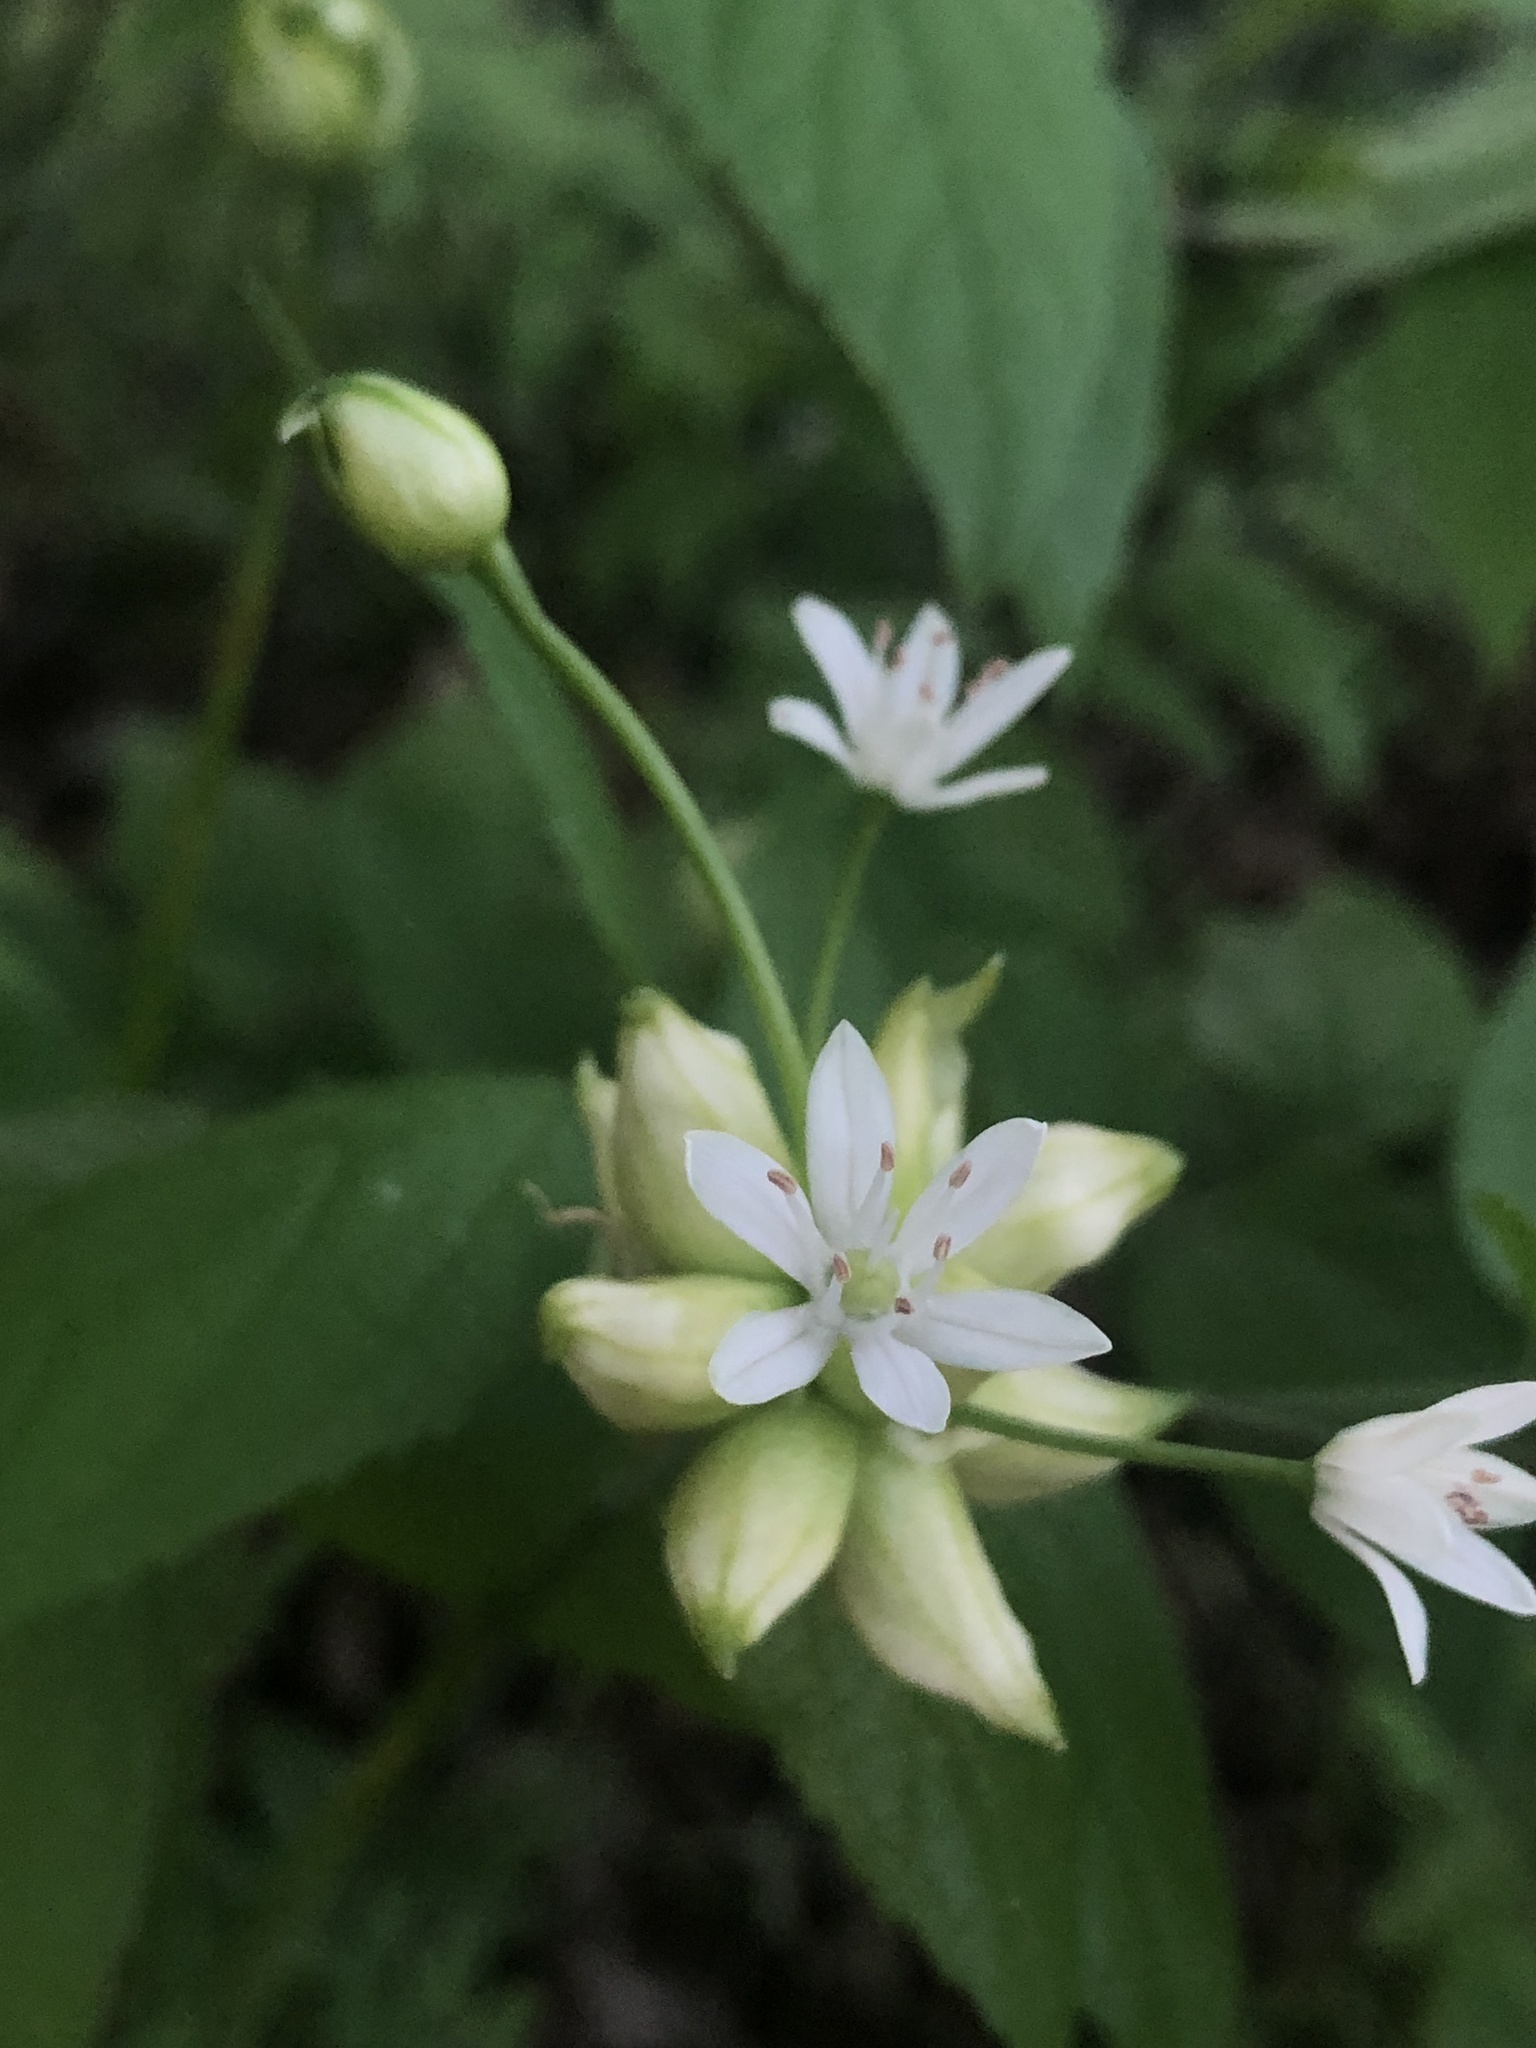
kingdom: Plantae
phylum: Tracheophyta
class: Liliopsida
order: Asparagales
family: Amaryllidaceae
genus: Allium
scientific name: Allium canadense
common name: Meadow garlic
